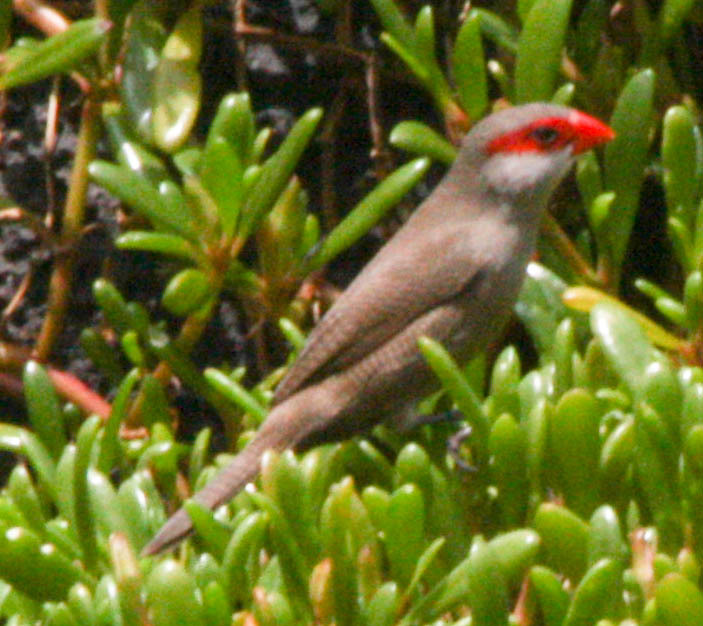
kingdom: Animalia
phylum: Chordata
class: Aves
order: Passeriformes
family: Estrildidae
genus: Estrilda
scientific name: Estrilda astrild
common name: Common waxbill
